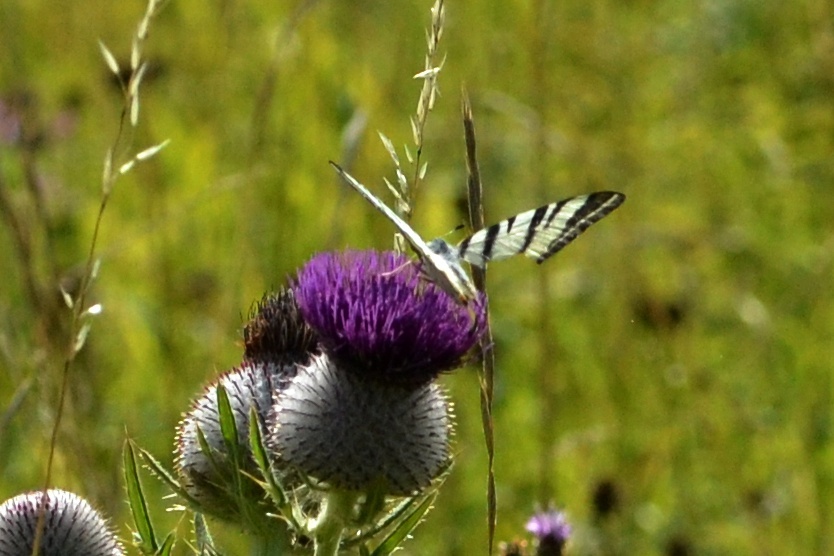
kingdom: Animalia
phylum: Arthropoda
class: Insecta
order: Lepidoptera
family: Papilionidae
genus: Iphiclides
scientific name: Iphiclides podalirius
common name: Scarce swallowtail
